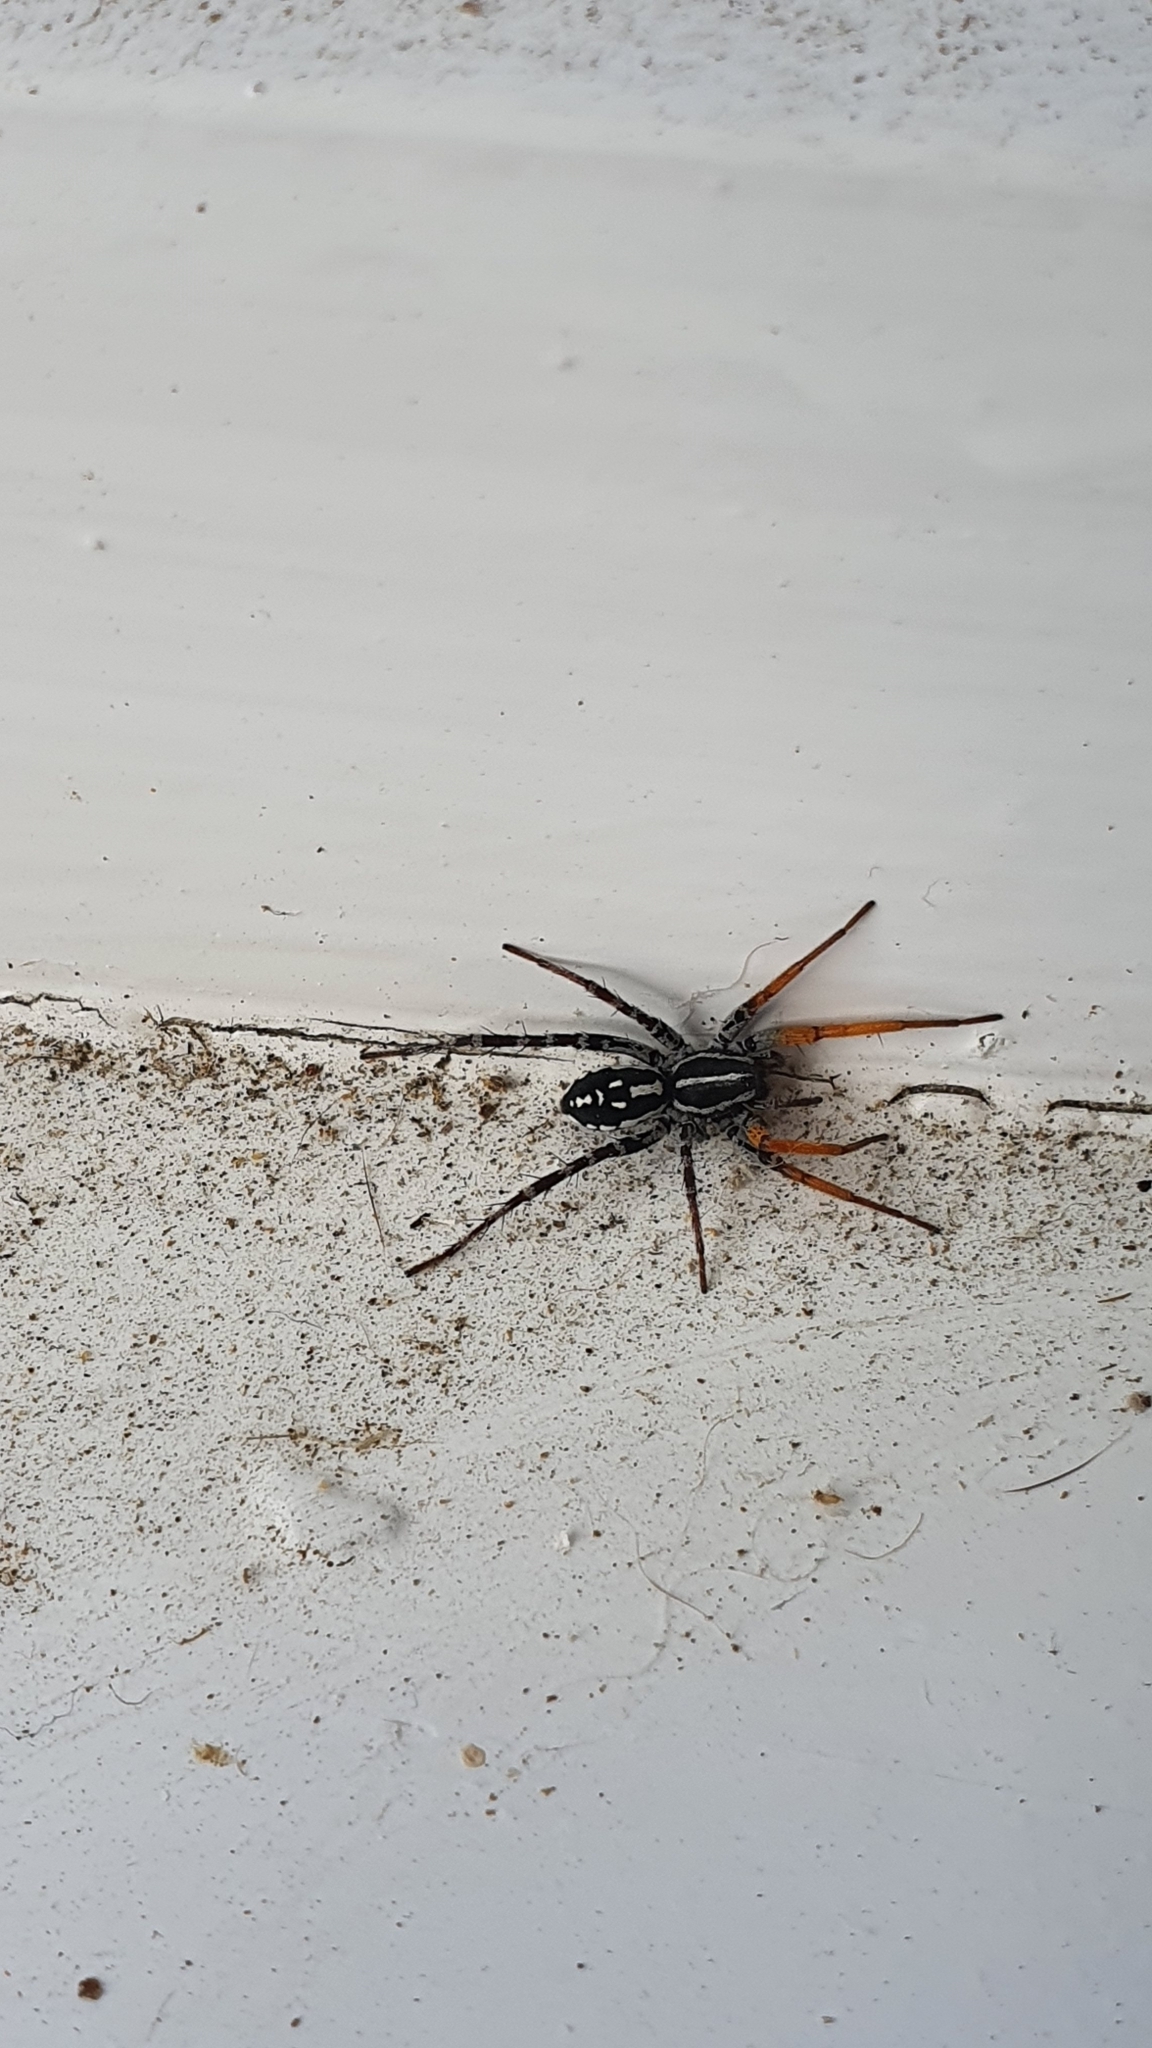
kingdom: Animalia
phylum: Arthropoda
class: Arachnida
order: Araneae
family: Corinnidae
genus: Nyssus
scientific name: Nyssus coloripes
